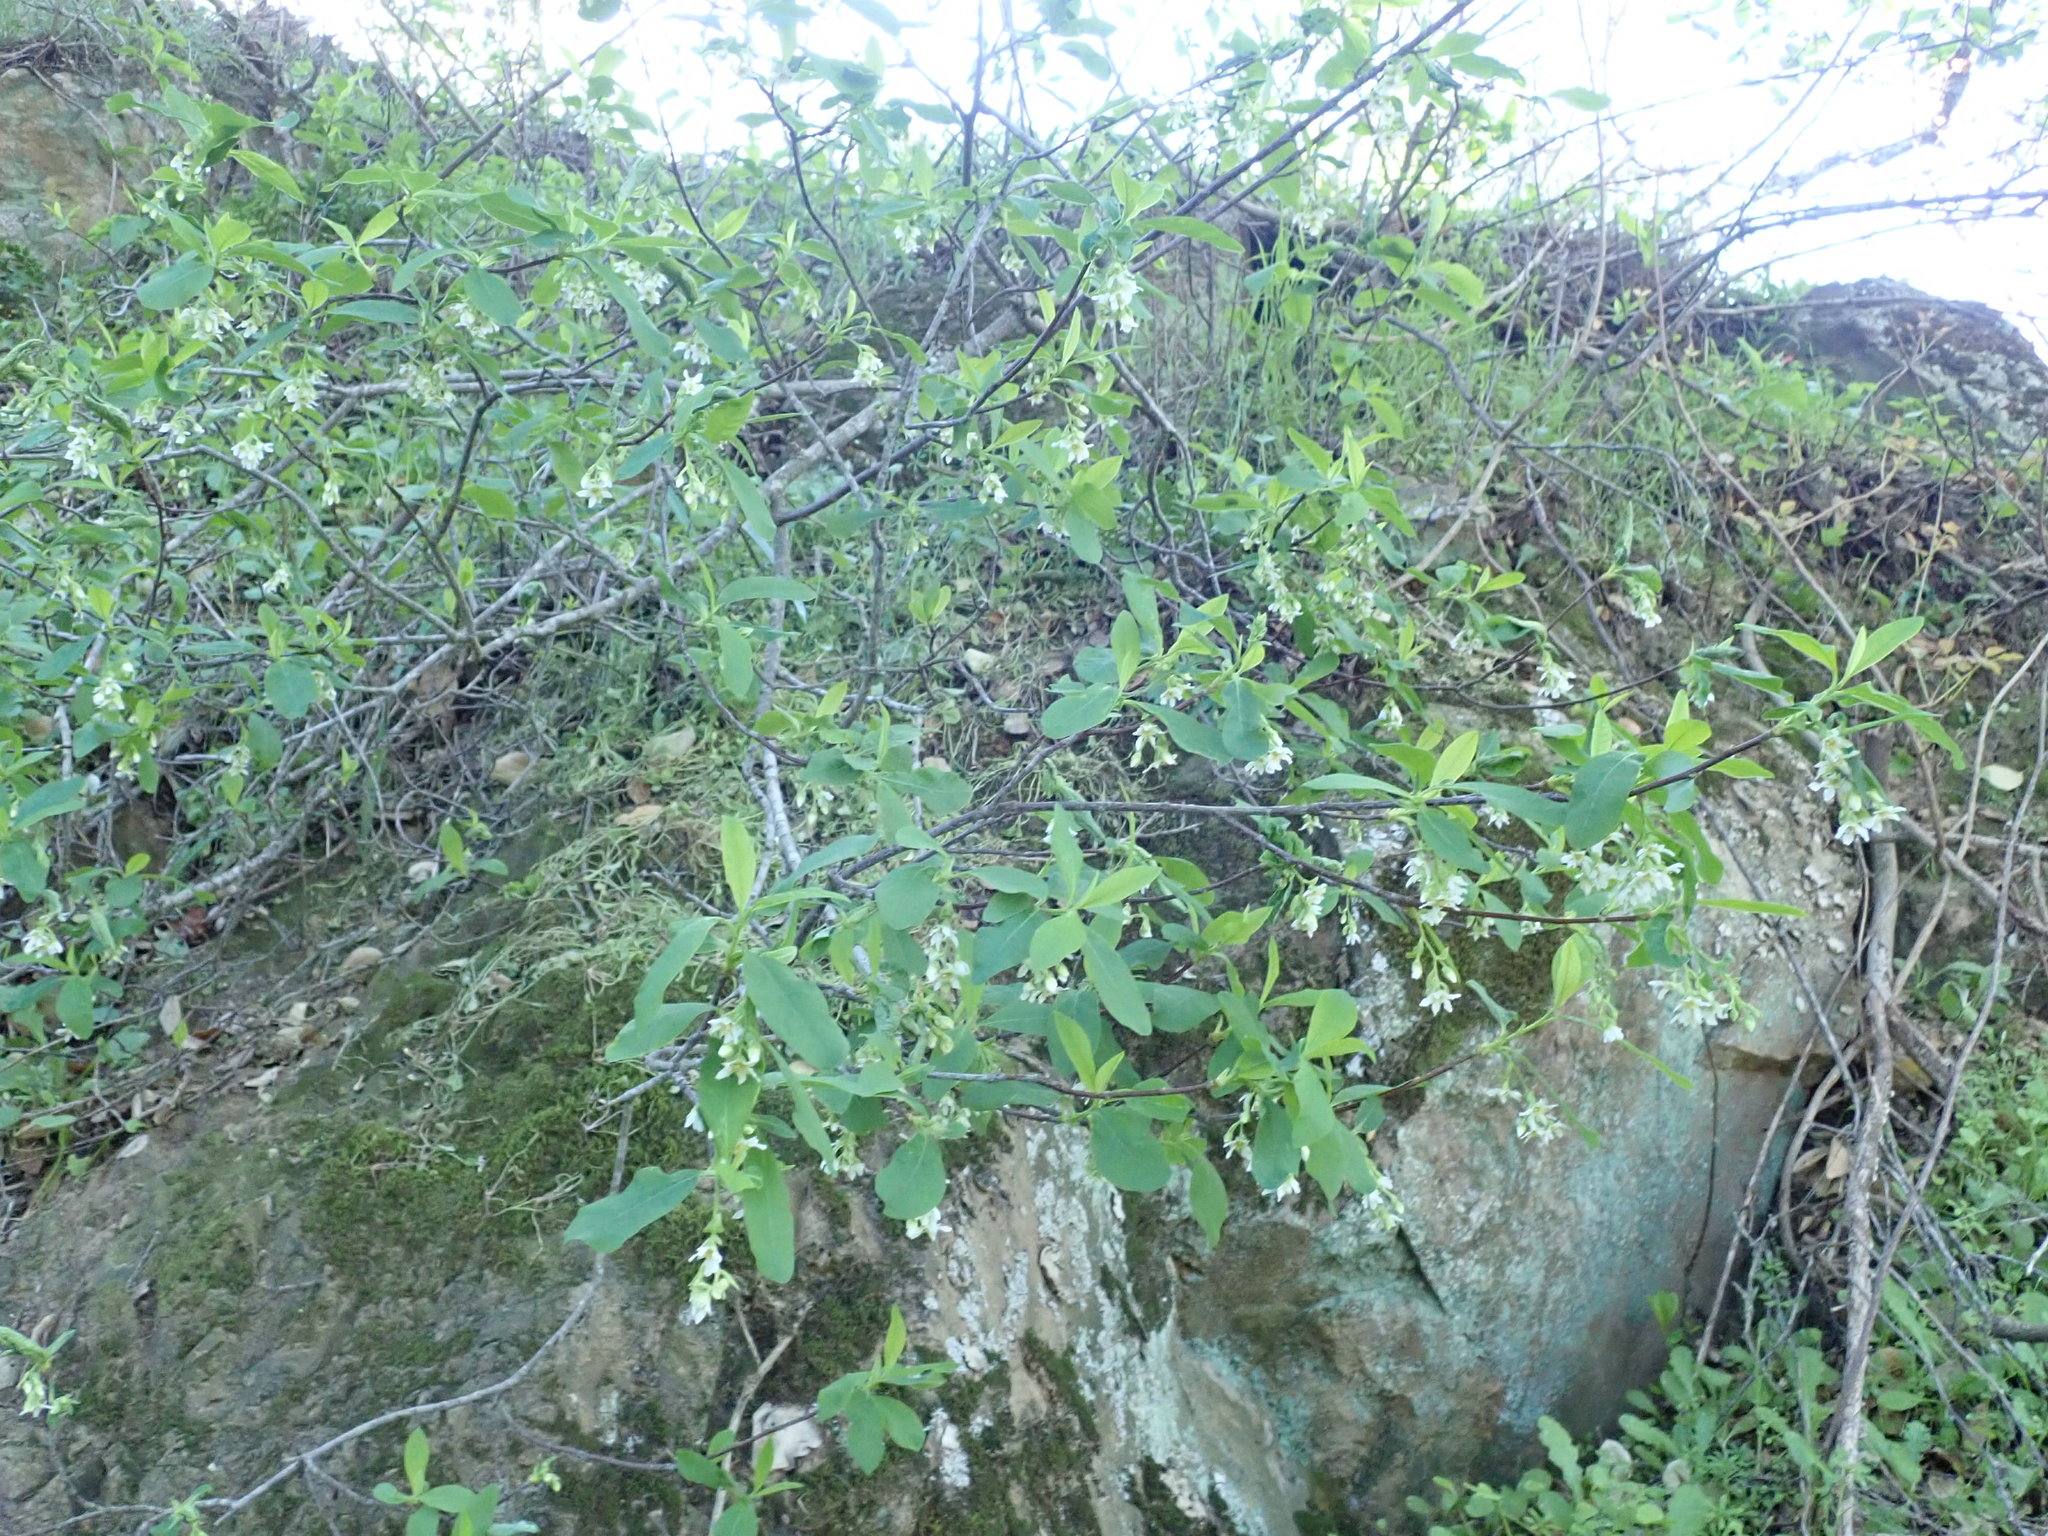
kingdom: Plantae
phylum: Tracheophyta
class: Magnoliopsida
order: Rosales
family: Rosaceae
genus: Oemleria
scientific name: Oemleria cerasiformis
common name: Osoberry
